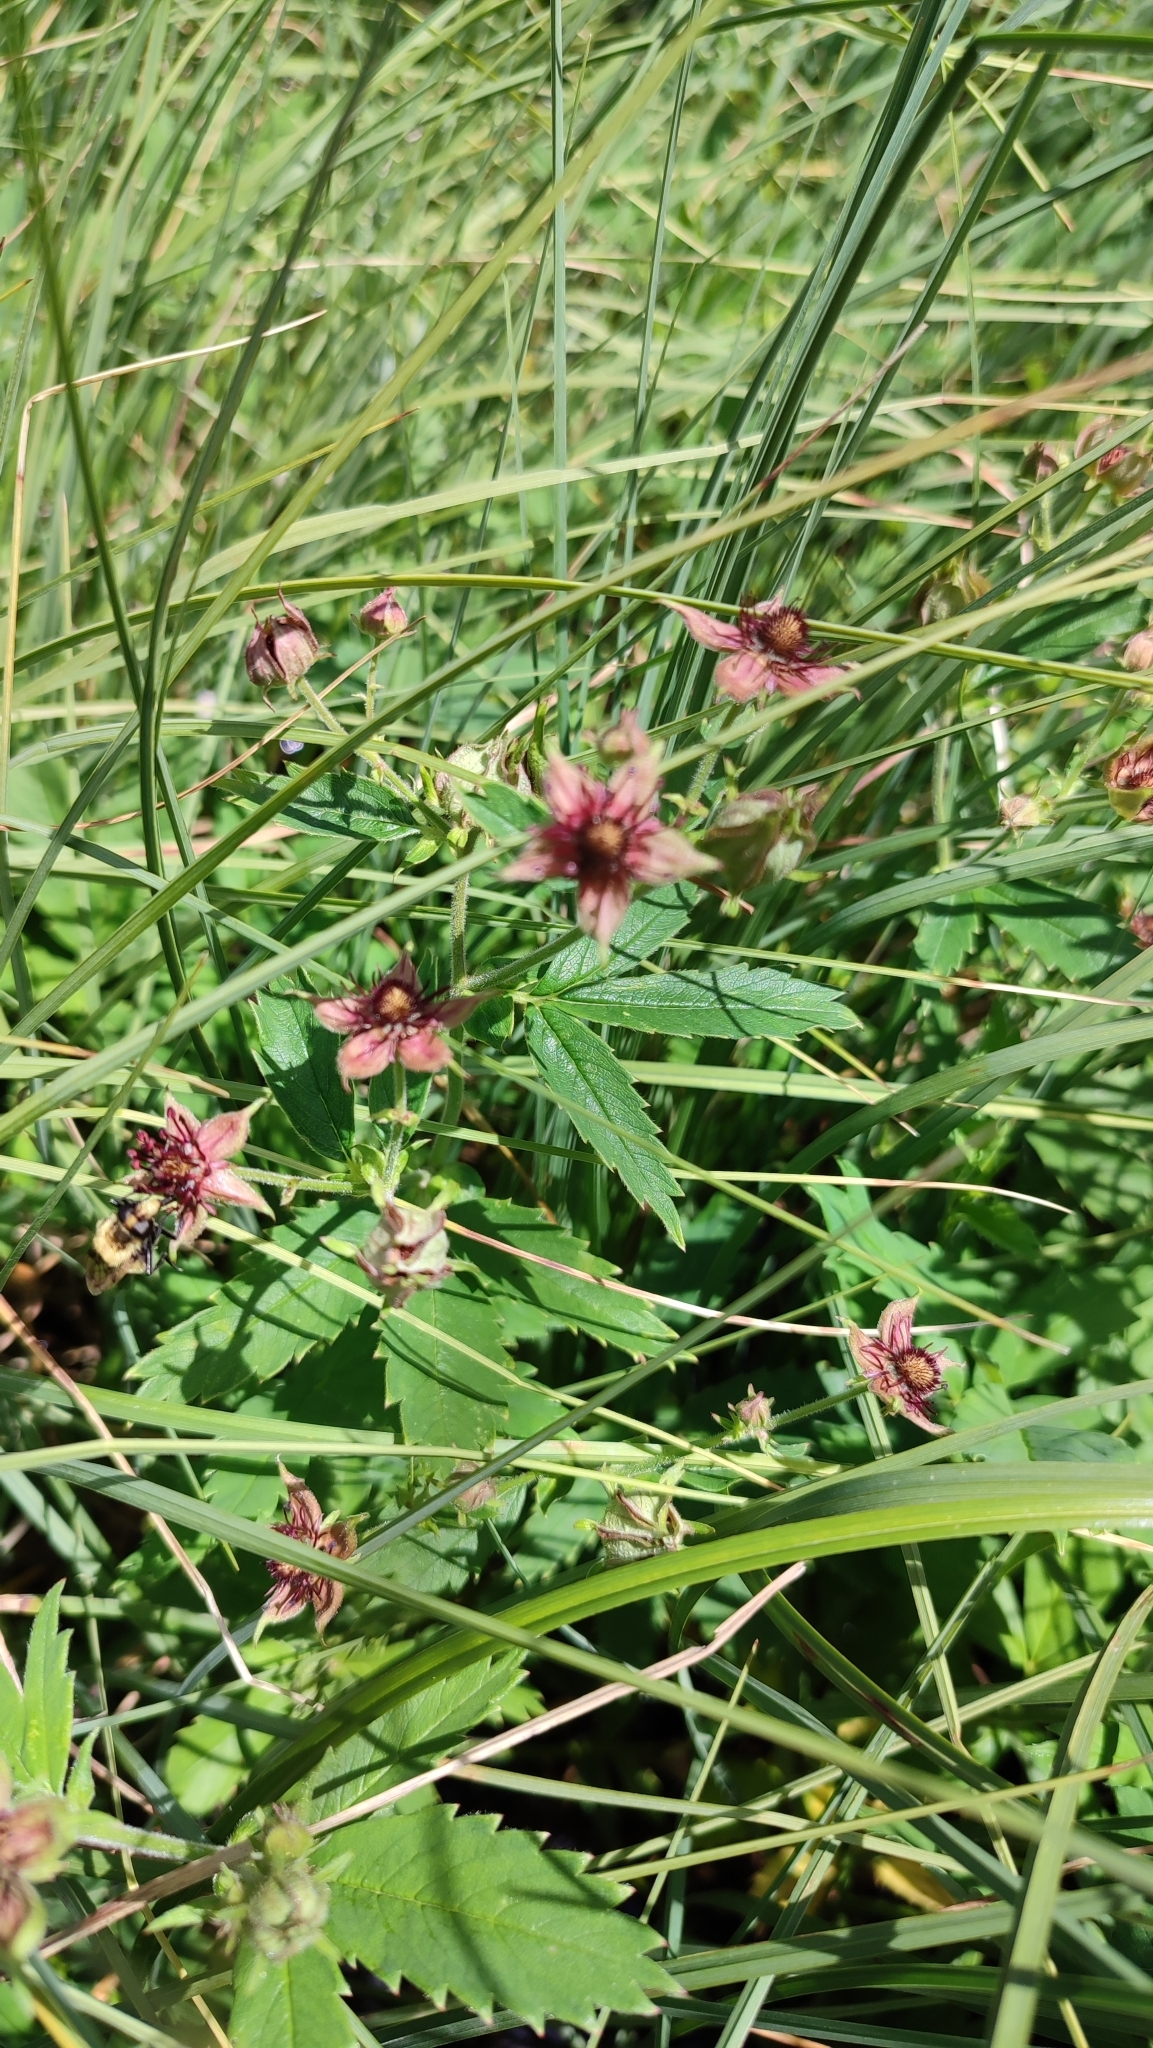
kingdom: Plantae
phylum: Tracheophyta
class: Magnoliopsida
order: Rosales
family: Rosaceae
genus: Comarum
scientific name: Comarum palustre
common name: Marsh cinquefoil
